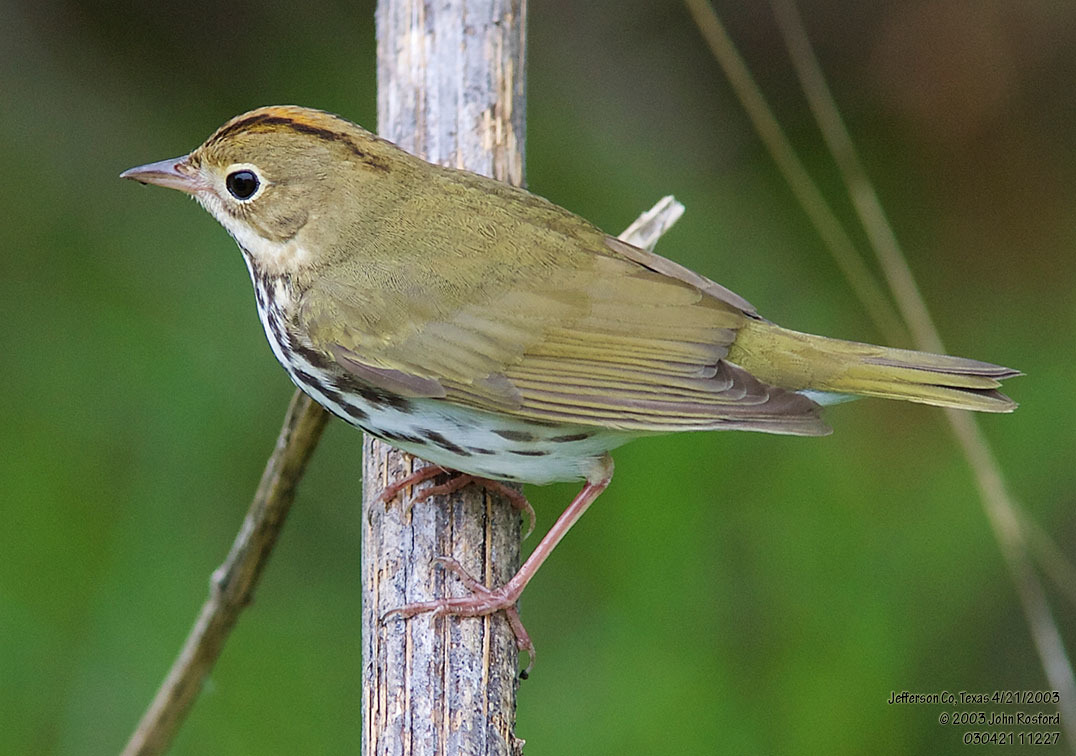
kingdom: Animalia
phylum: Chordata
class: Aves
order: Passeriformes
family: Parulidae
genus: Seiurus
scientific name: Seiurus aurocapilla
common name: Ovenbird
